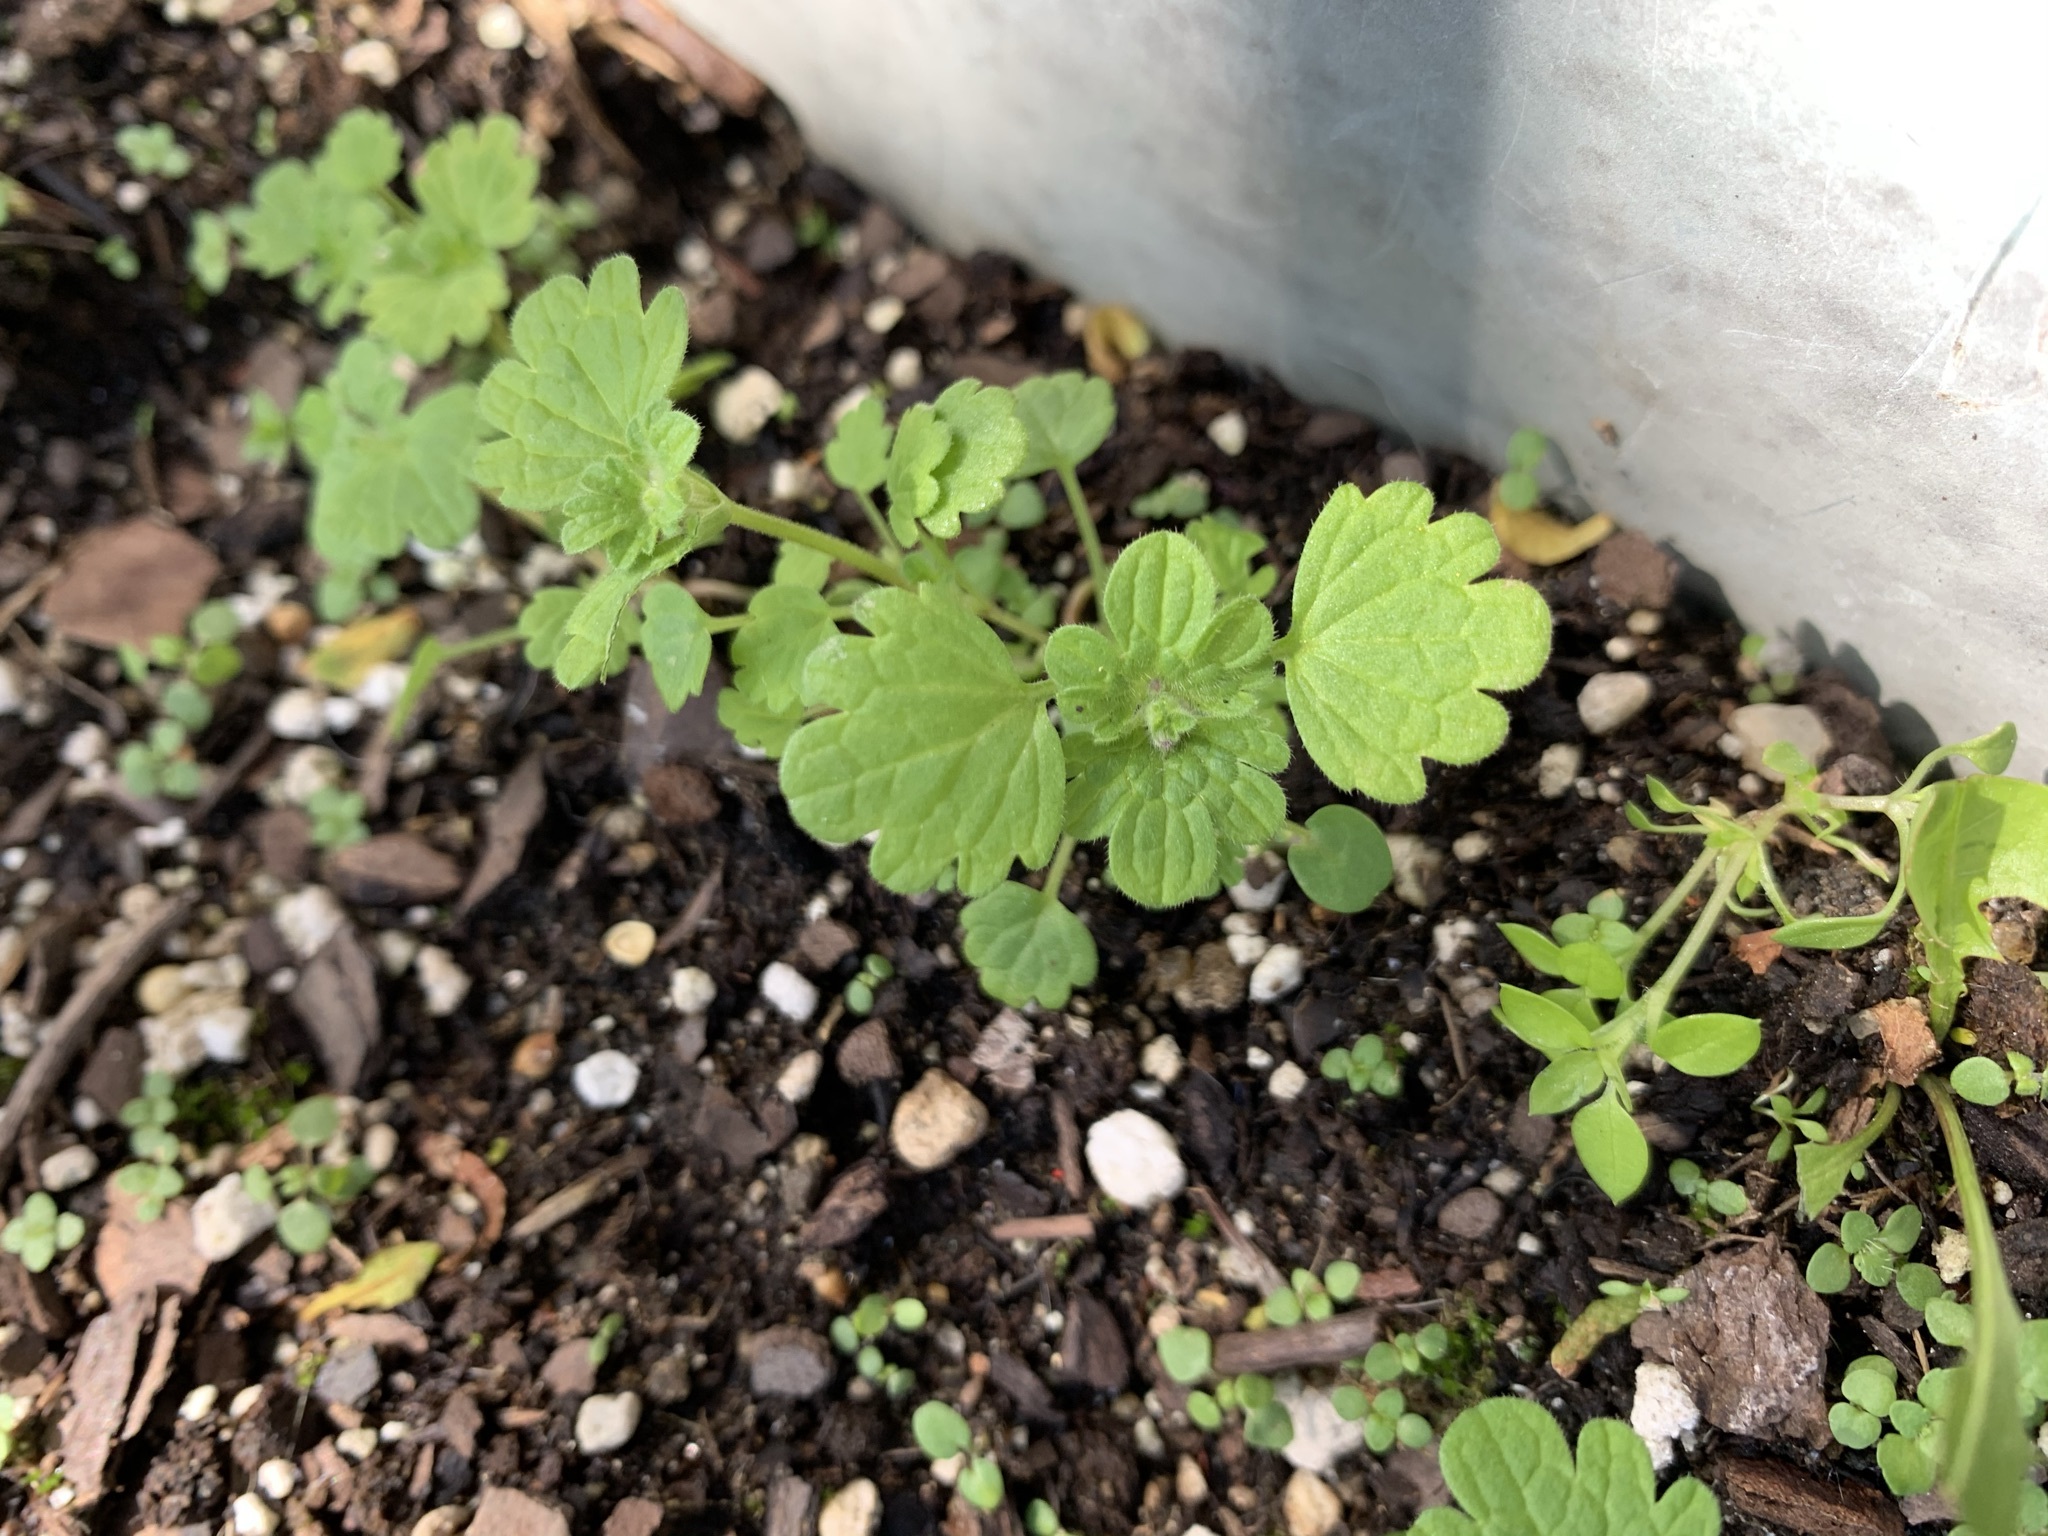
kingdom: Plantae
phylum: Tracheophyta
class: Magnoliopsida
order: Lamiales
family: Lamiaceae
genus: Lamium
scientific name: Lamium amplexicaule
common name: Henbit dead-nettle
